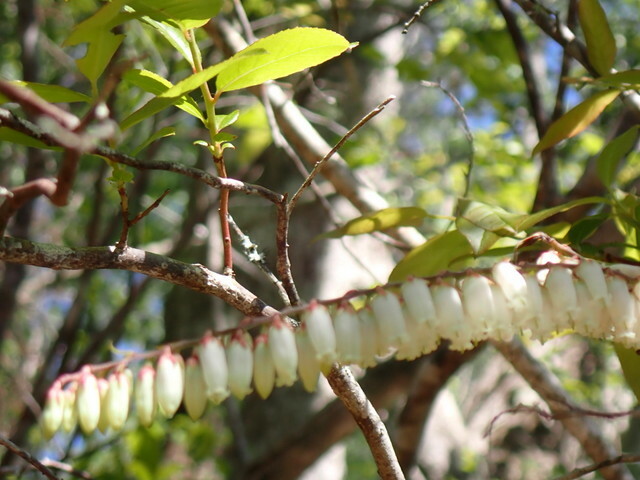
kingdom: Plantae
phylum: Tracheophyta
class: Magnoliopsida
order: Ericales
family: Ericaceae
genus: Eubotrys
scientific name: Eubotrys racemosa
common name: Fetterbush
